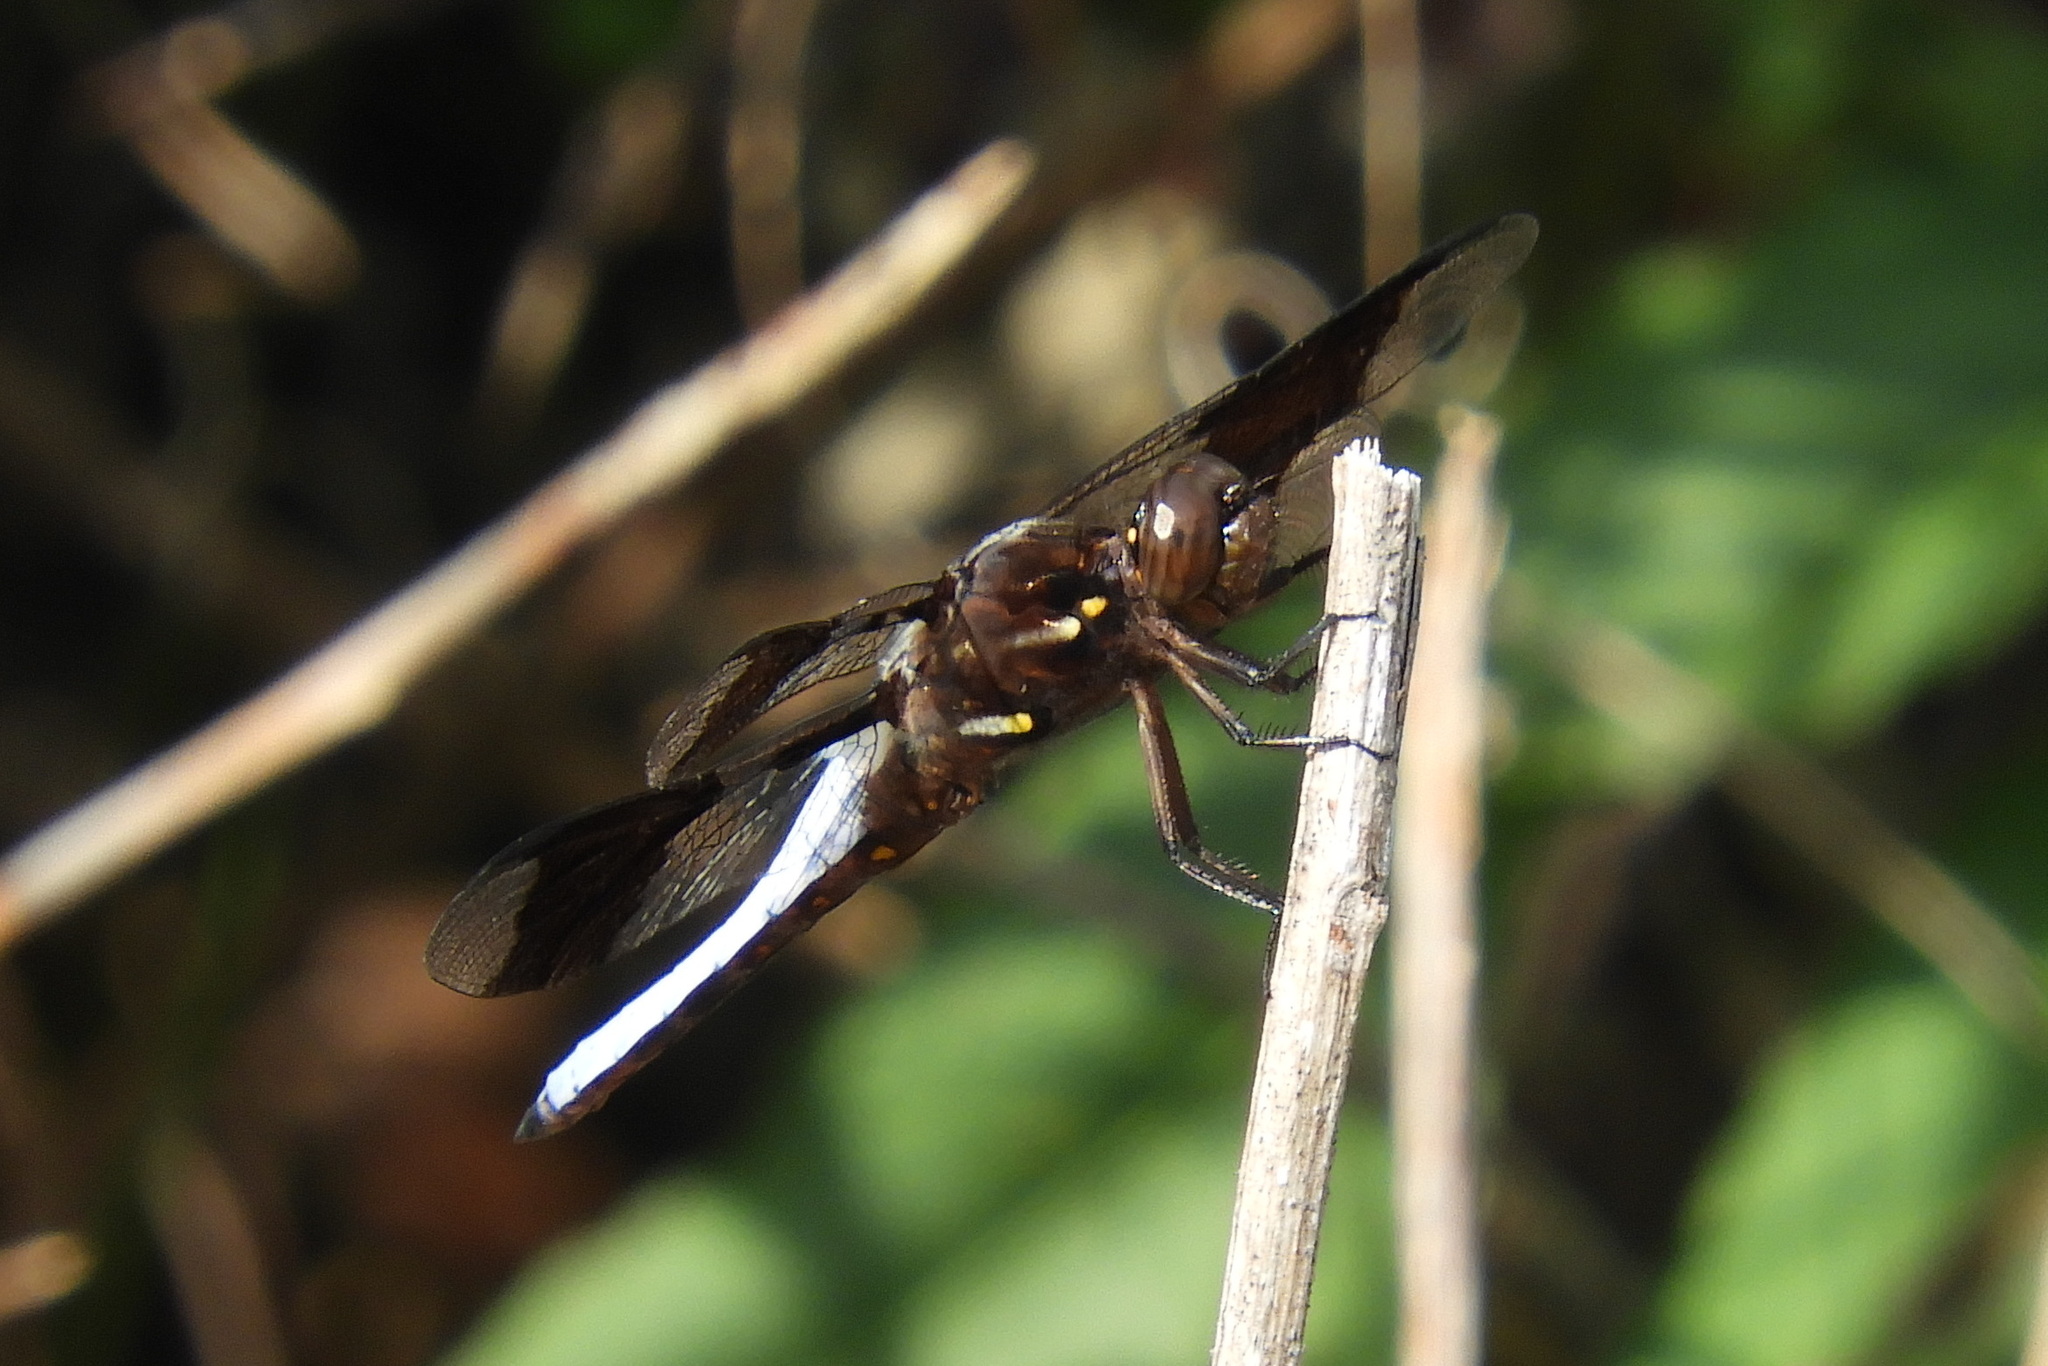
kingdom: Animalia
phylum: Arthropoda
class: Insecta
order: Odonata
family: Libellulidae
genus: Plathemis
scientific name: Plathemis lydia
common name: Common whitetail
